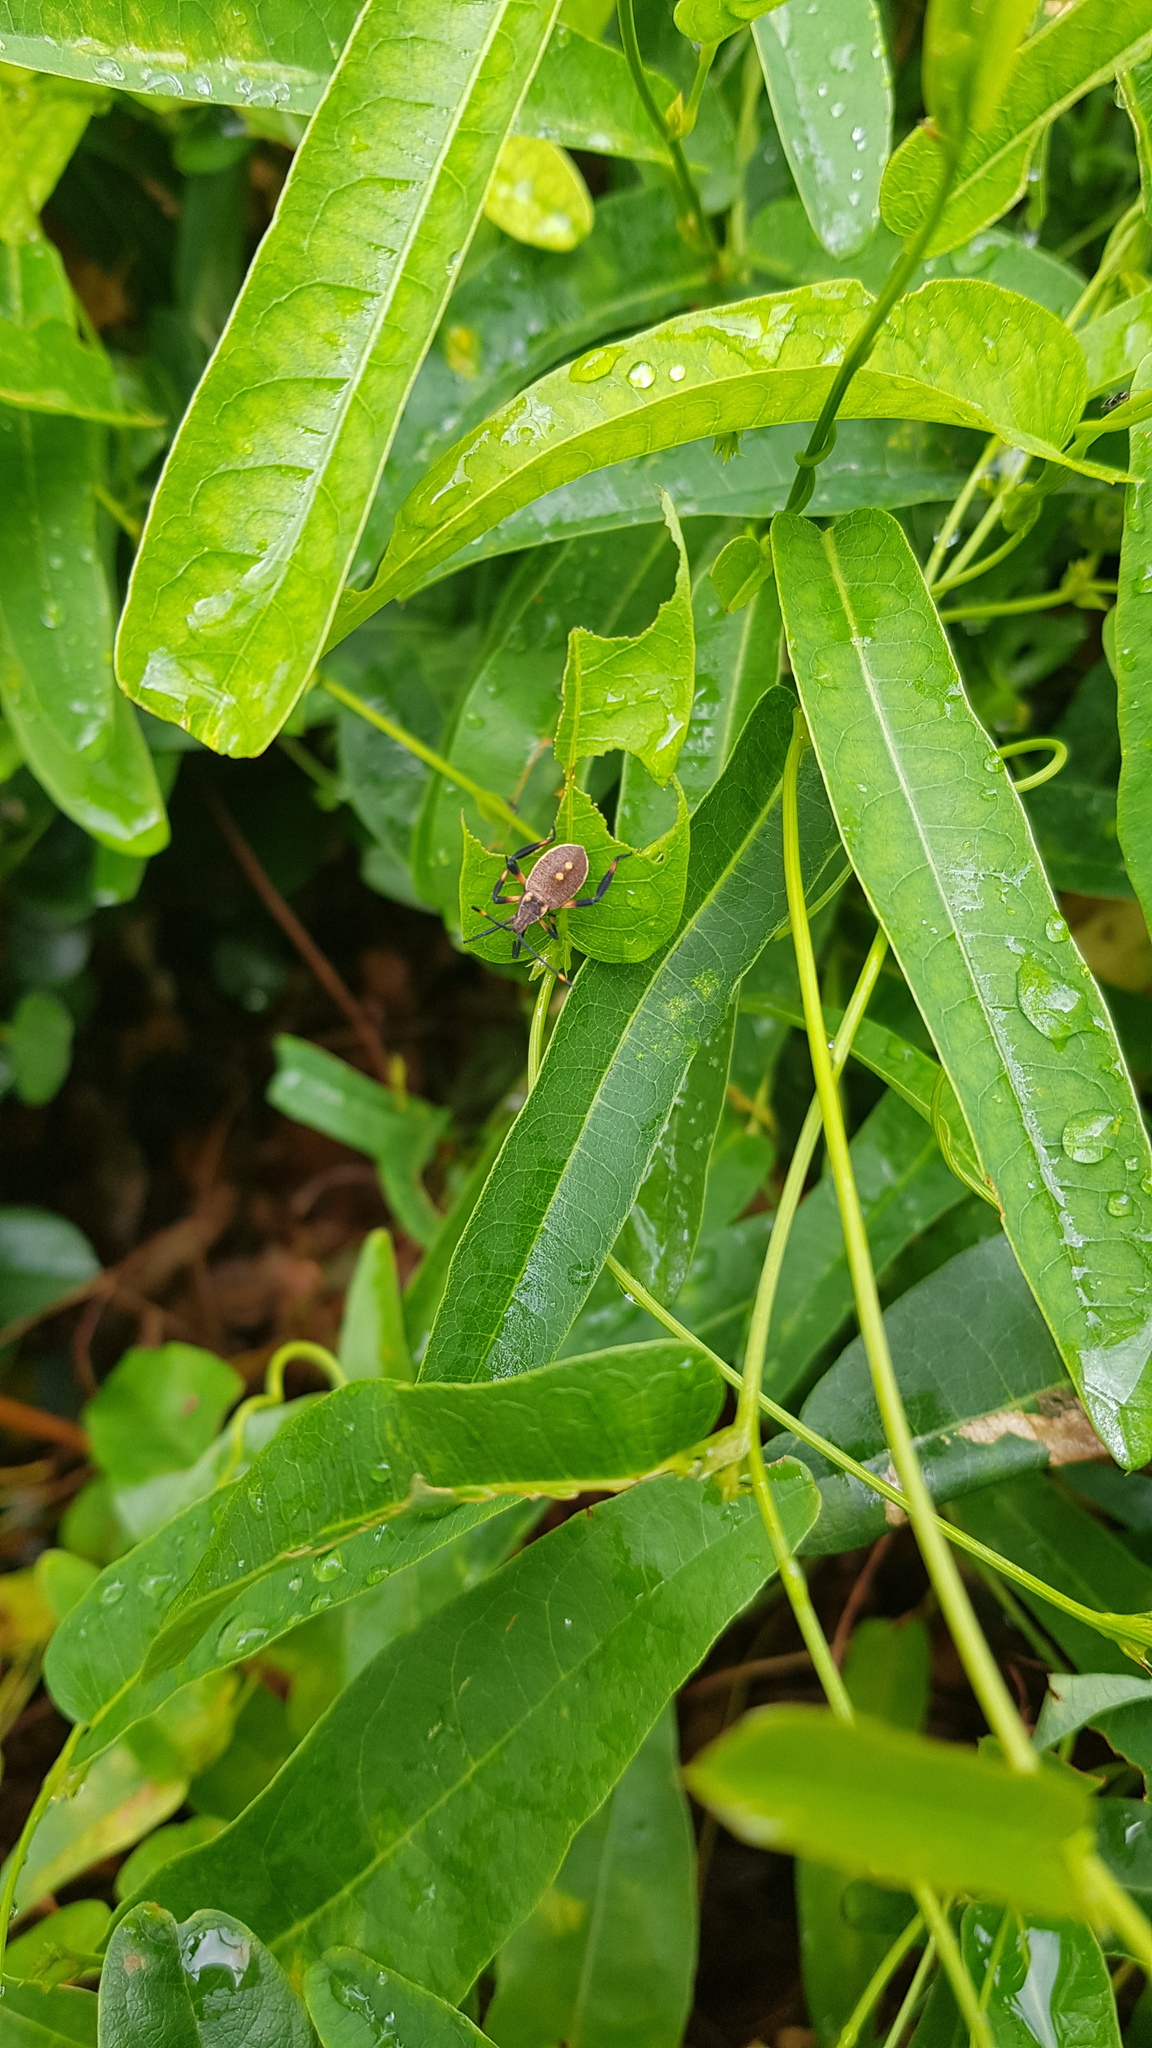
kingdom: Animalia
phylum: Arthropoda
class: Insecta
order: Hemiptera
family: Coreidae
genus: Mictis
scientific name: Mictis profana
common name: Crusader bug
